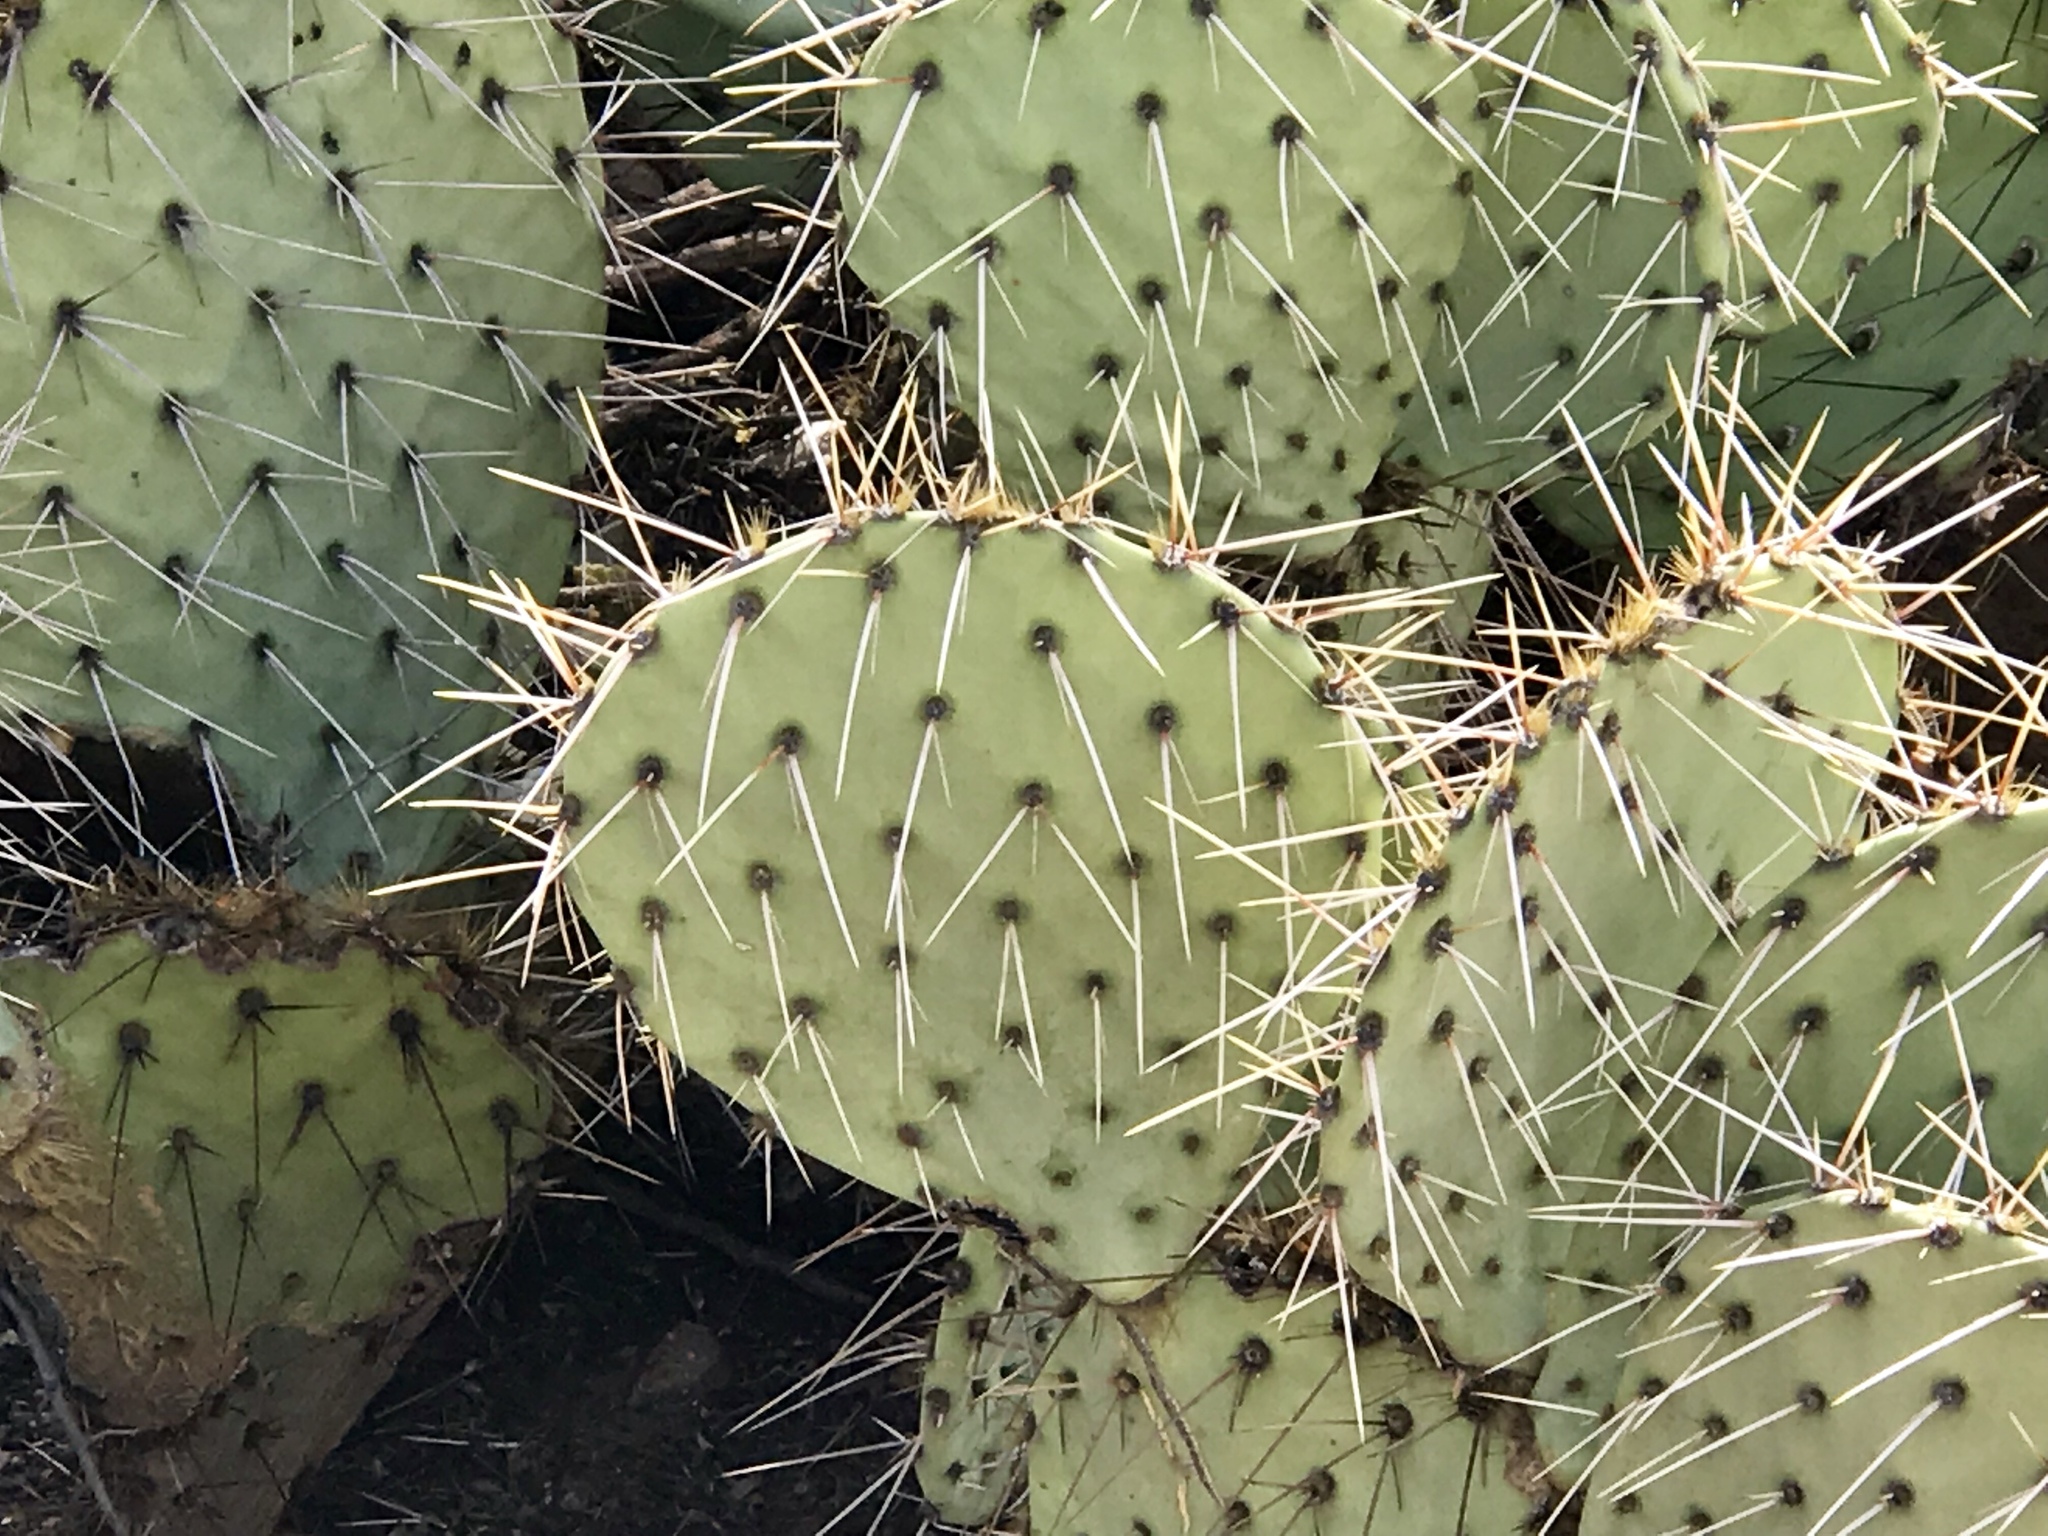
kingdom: Plantae
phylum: Tracheophyta
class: Magnoliopsida
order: Caryophyllales
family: Cactaceae
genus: Opuntia
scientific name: Opuntia engelmannii
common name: Cactus-apple
